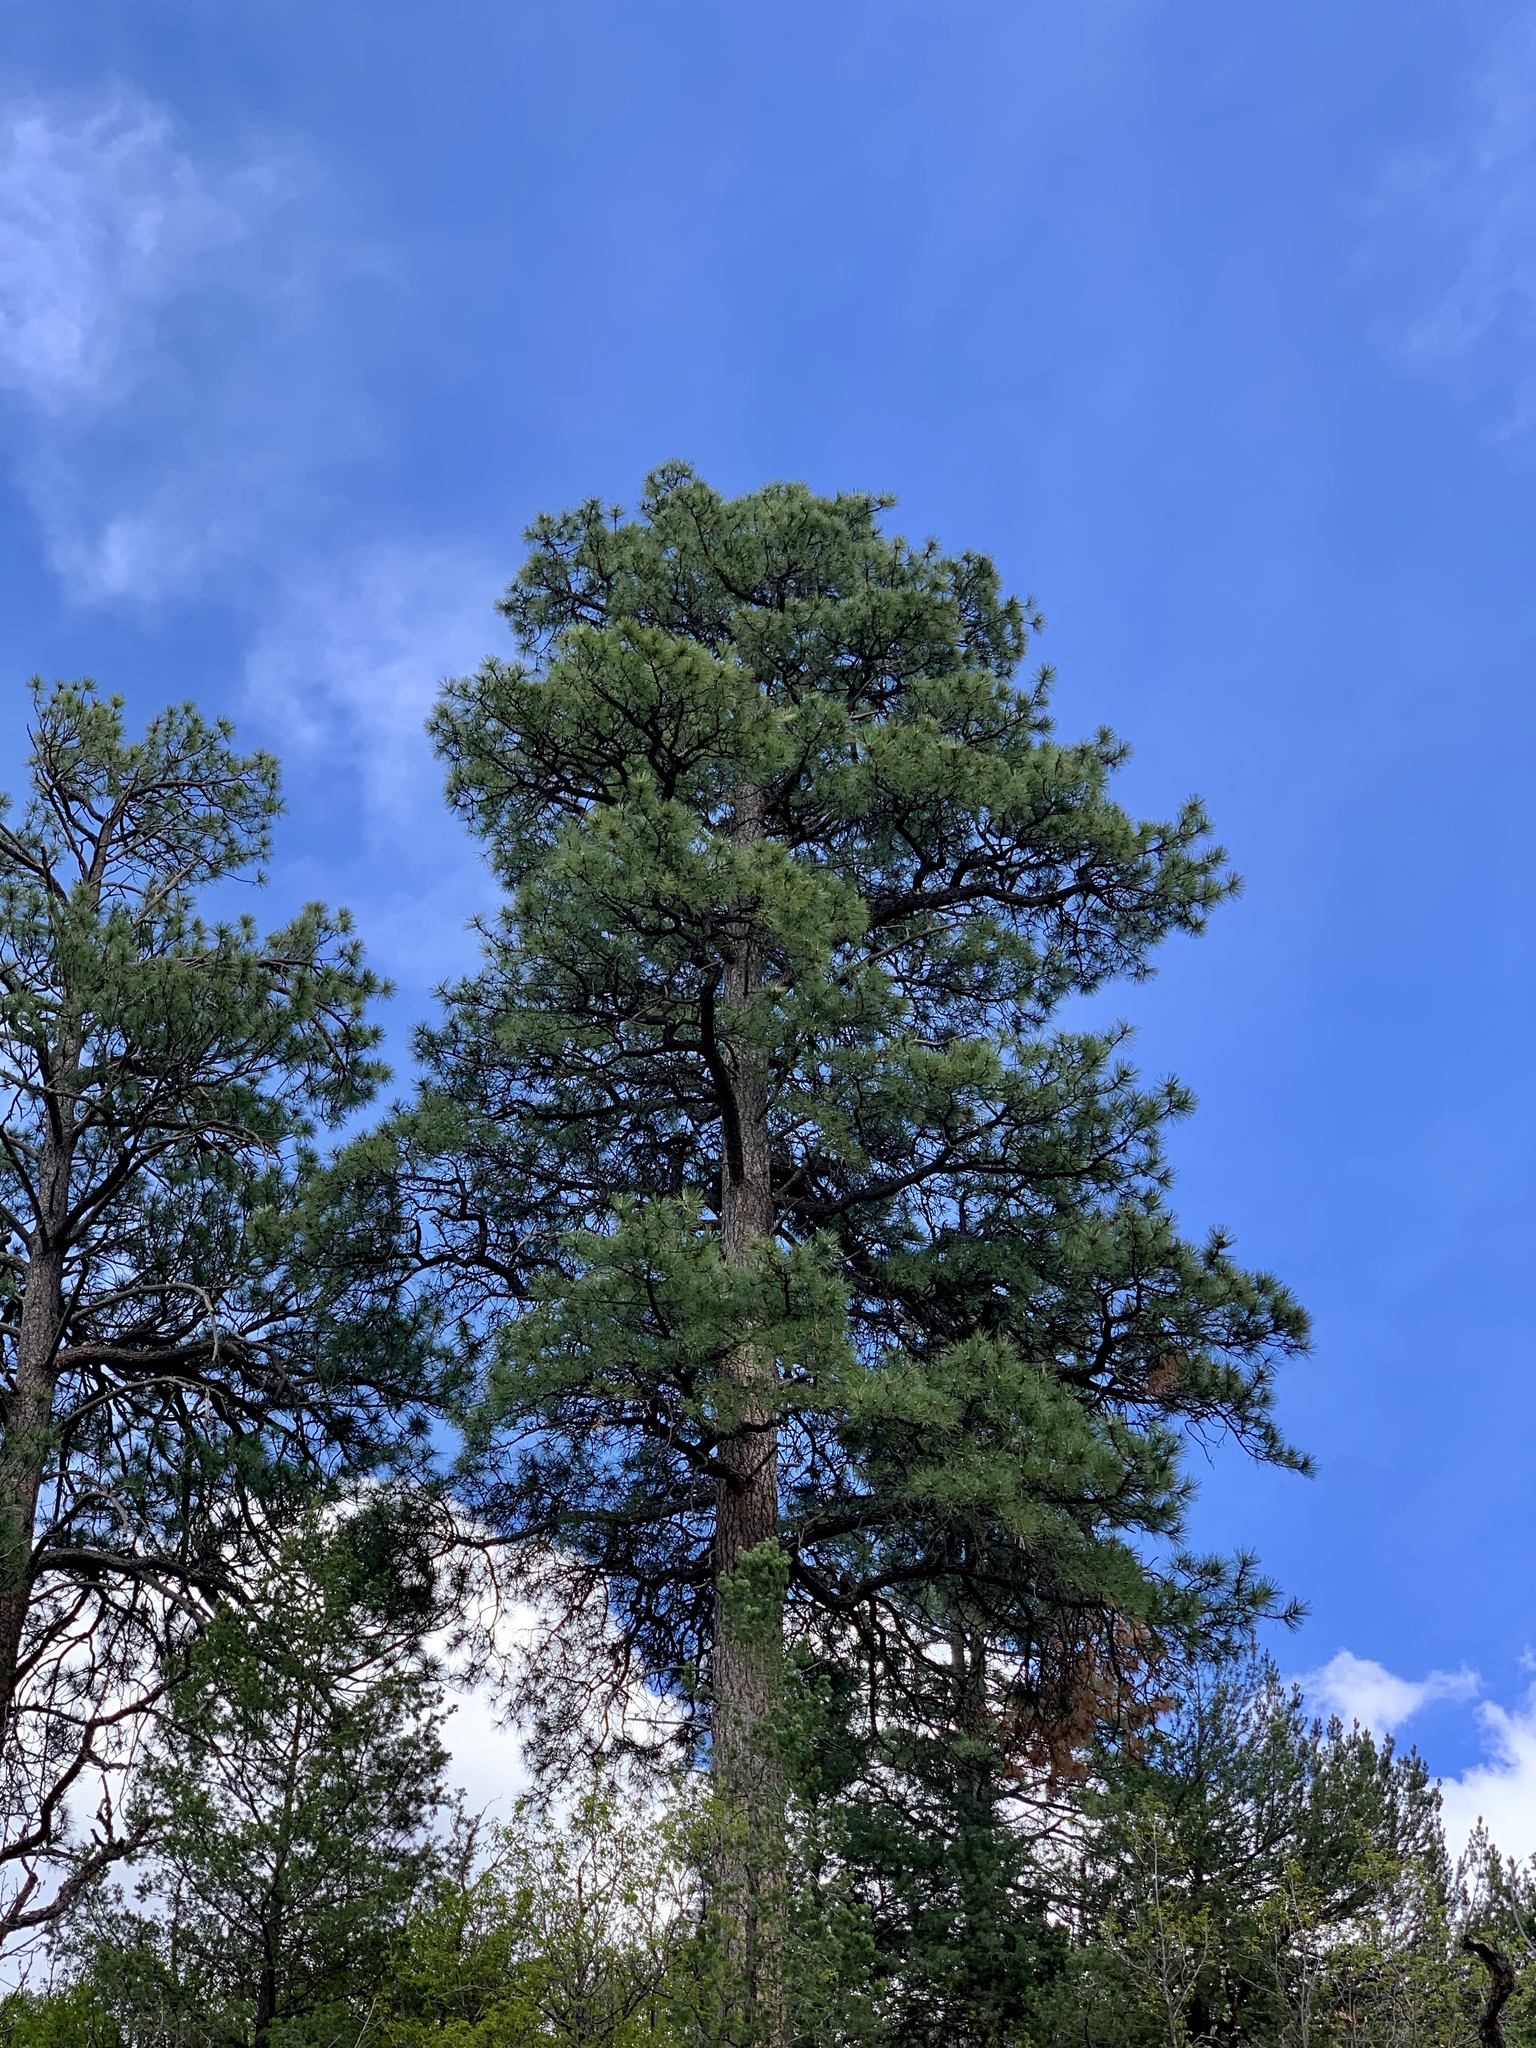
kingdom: Plantae
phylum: Tracheophyta
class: Pinopsida
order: Pinales
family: Pinaceae
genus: Pinus
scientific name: Pinus ponderosa
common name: Western yellow-pine
